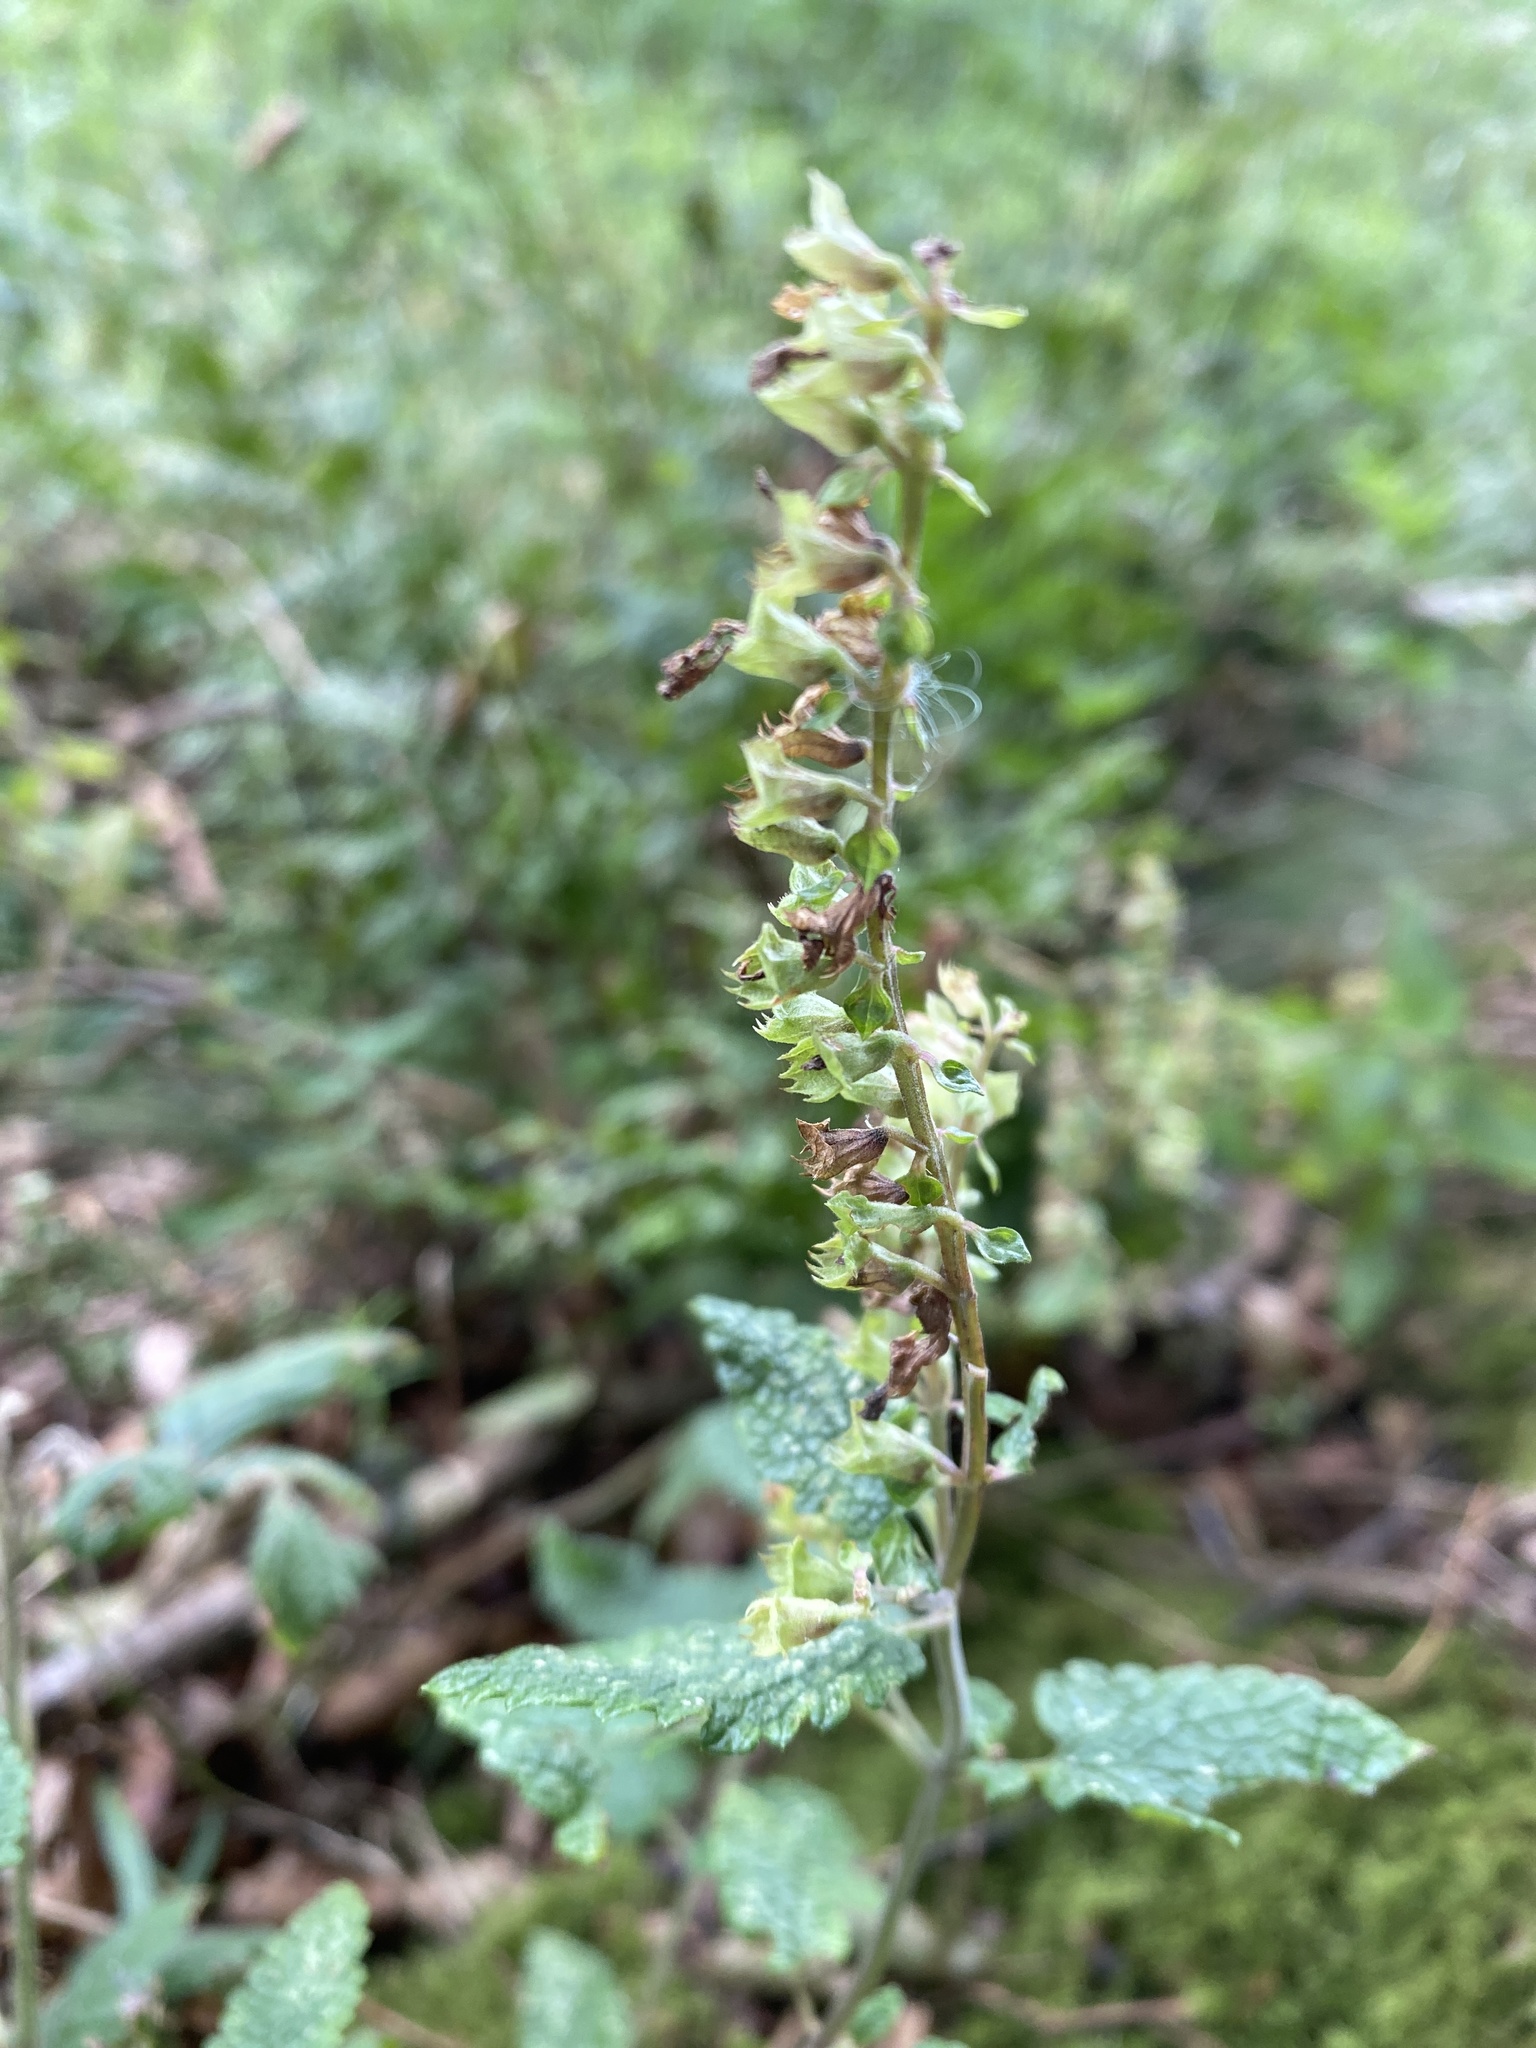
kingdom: Plantae
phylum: Tracheophyta
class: Magnoliopsida
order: Lamiales
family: Lamiaceae
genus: Teucrium
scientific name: Teucrium scorodonia
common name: Woodland germander
